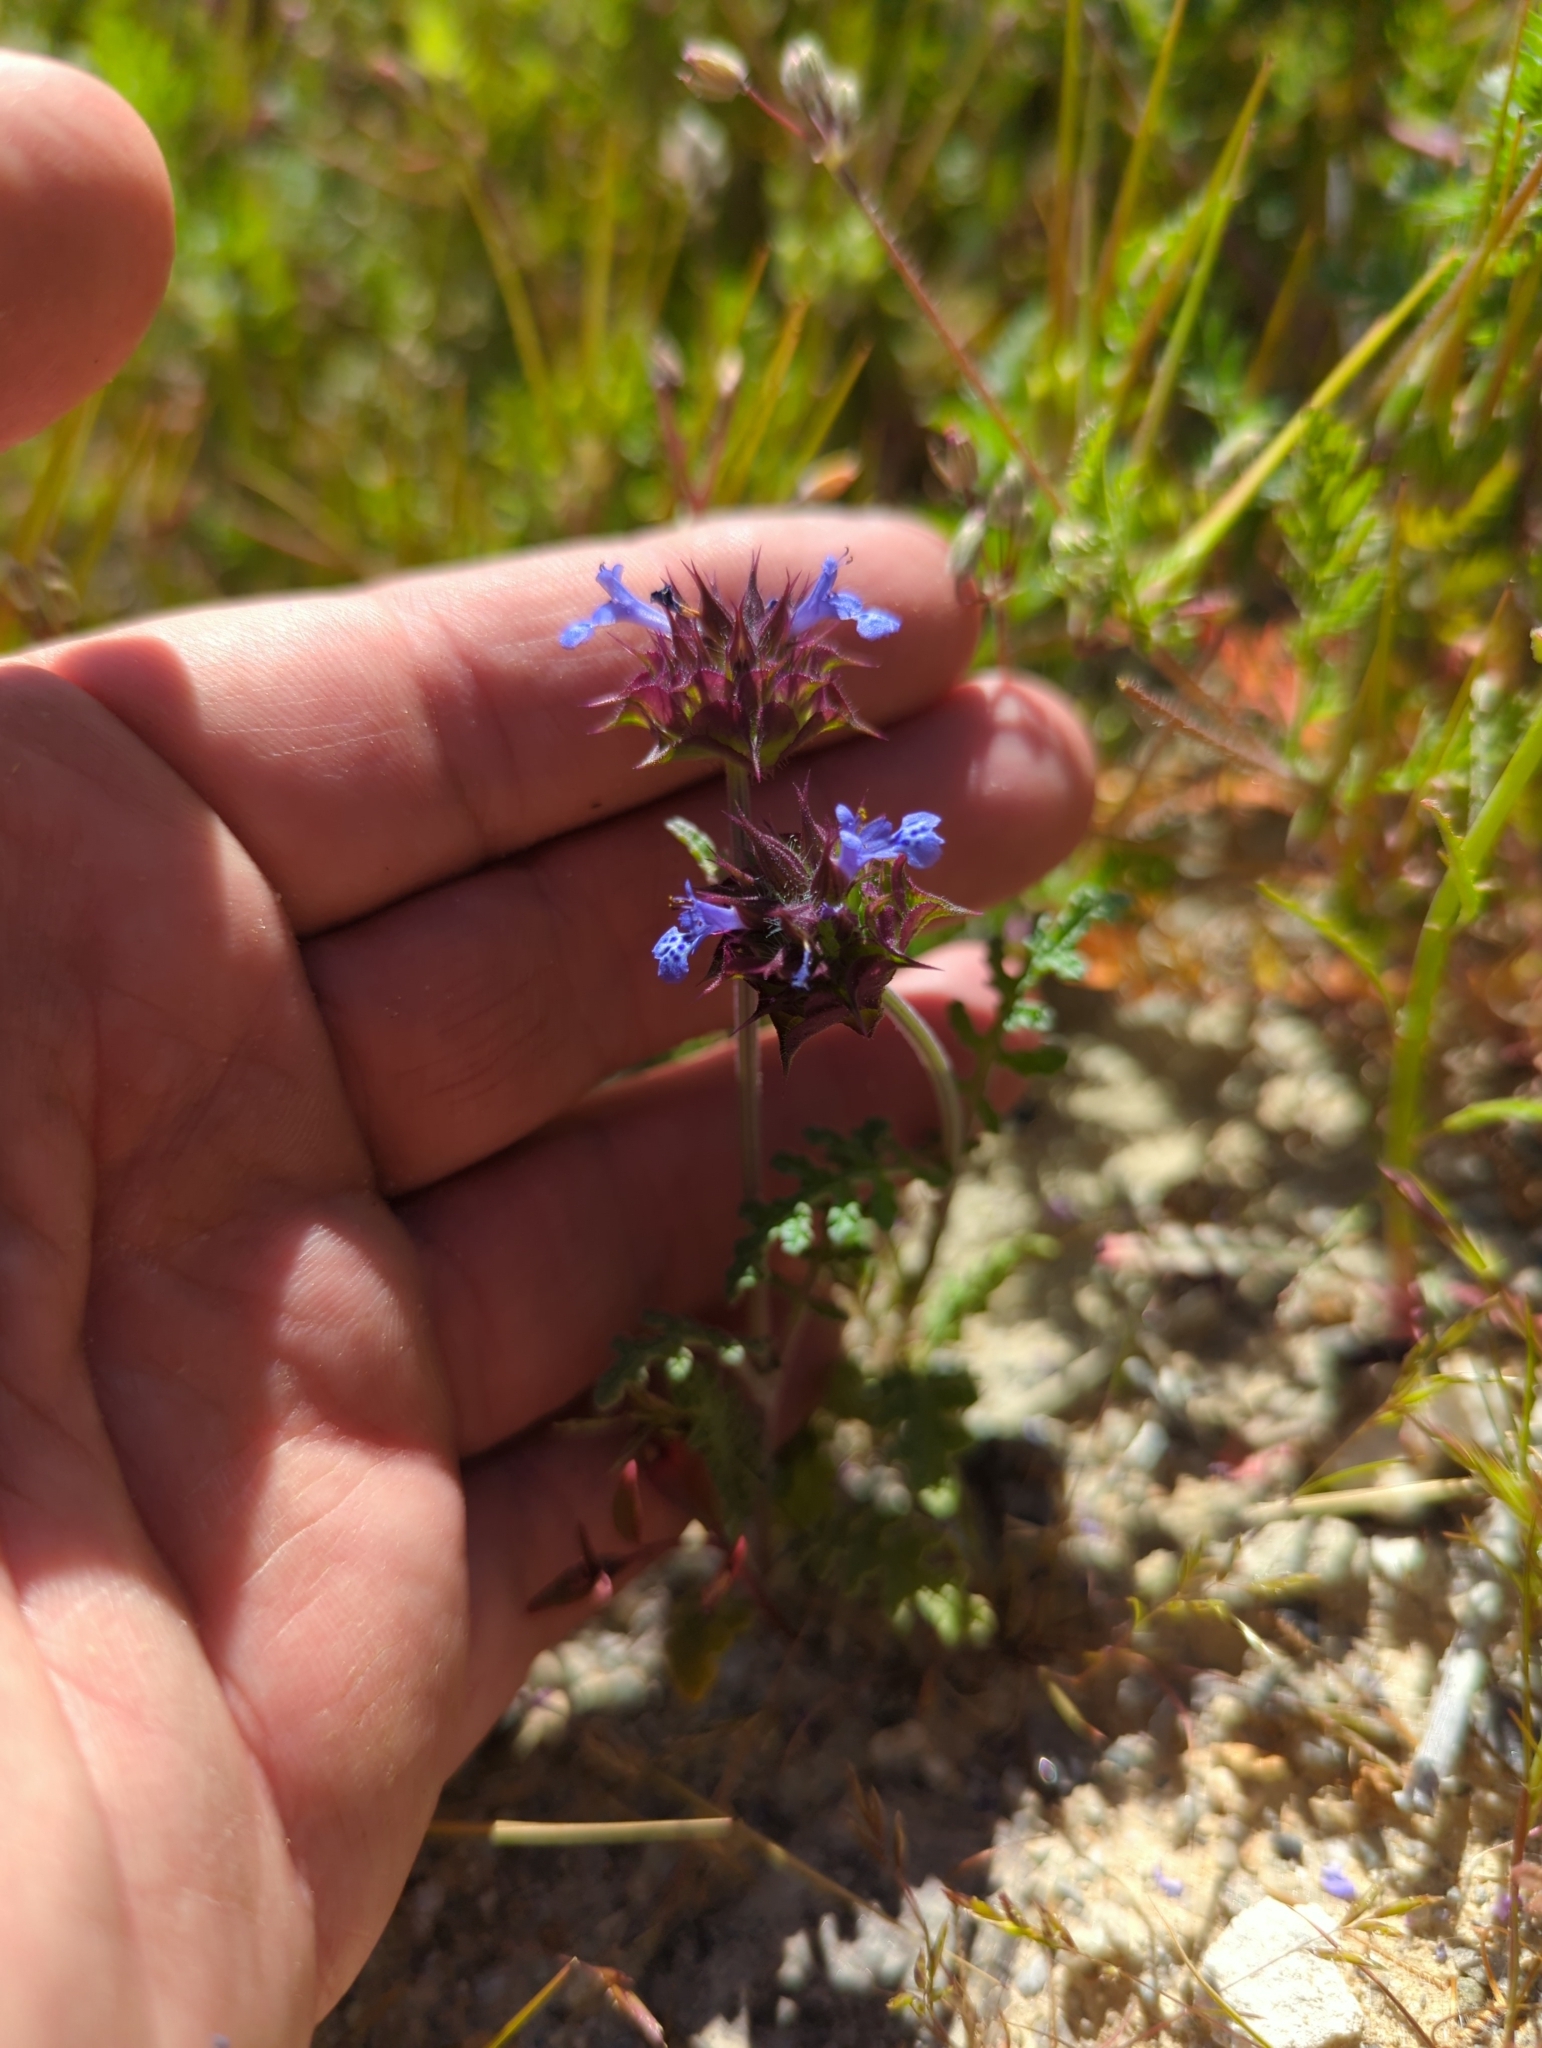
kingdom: Plantae
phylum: Tracheophyta
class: Magnoliopsida
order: Lamiales
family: Lamiaceae
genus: Salvia
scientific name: Salvia columbariae
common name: Chia
